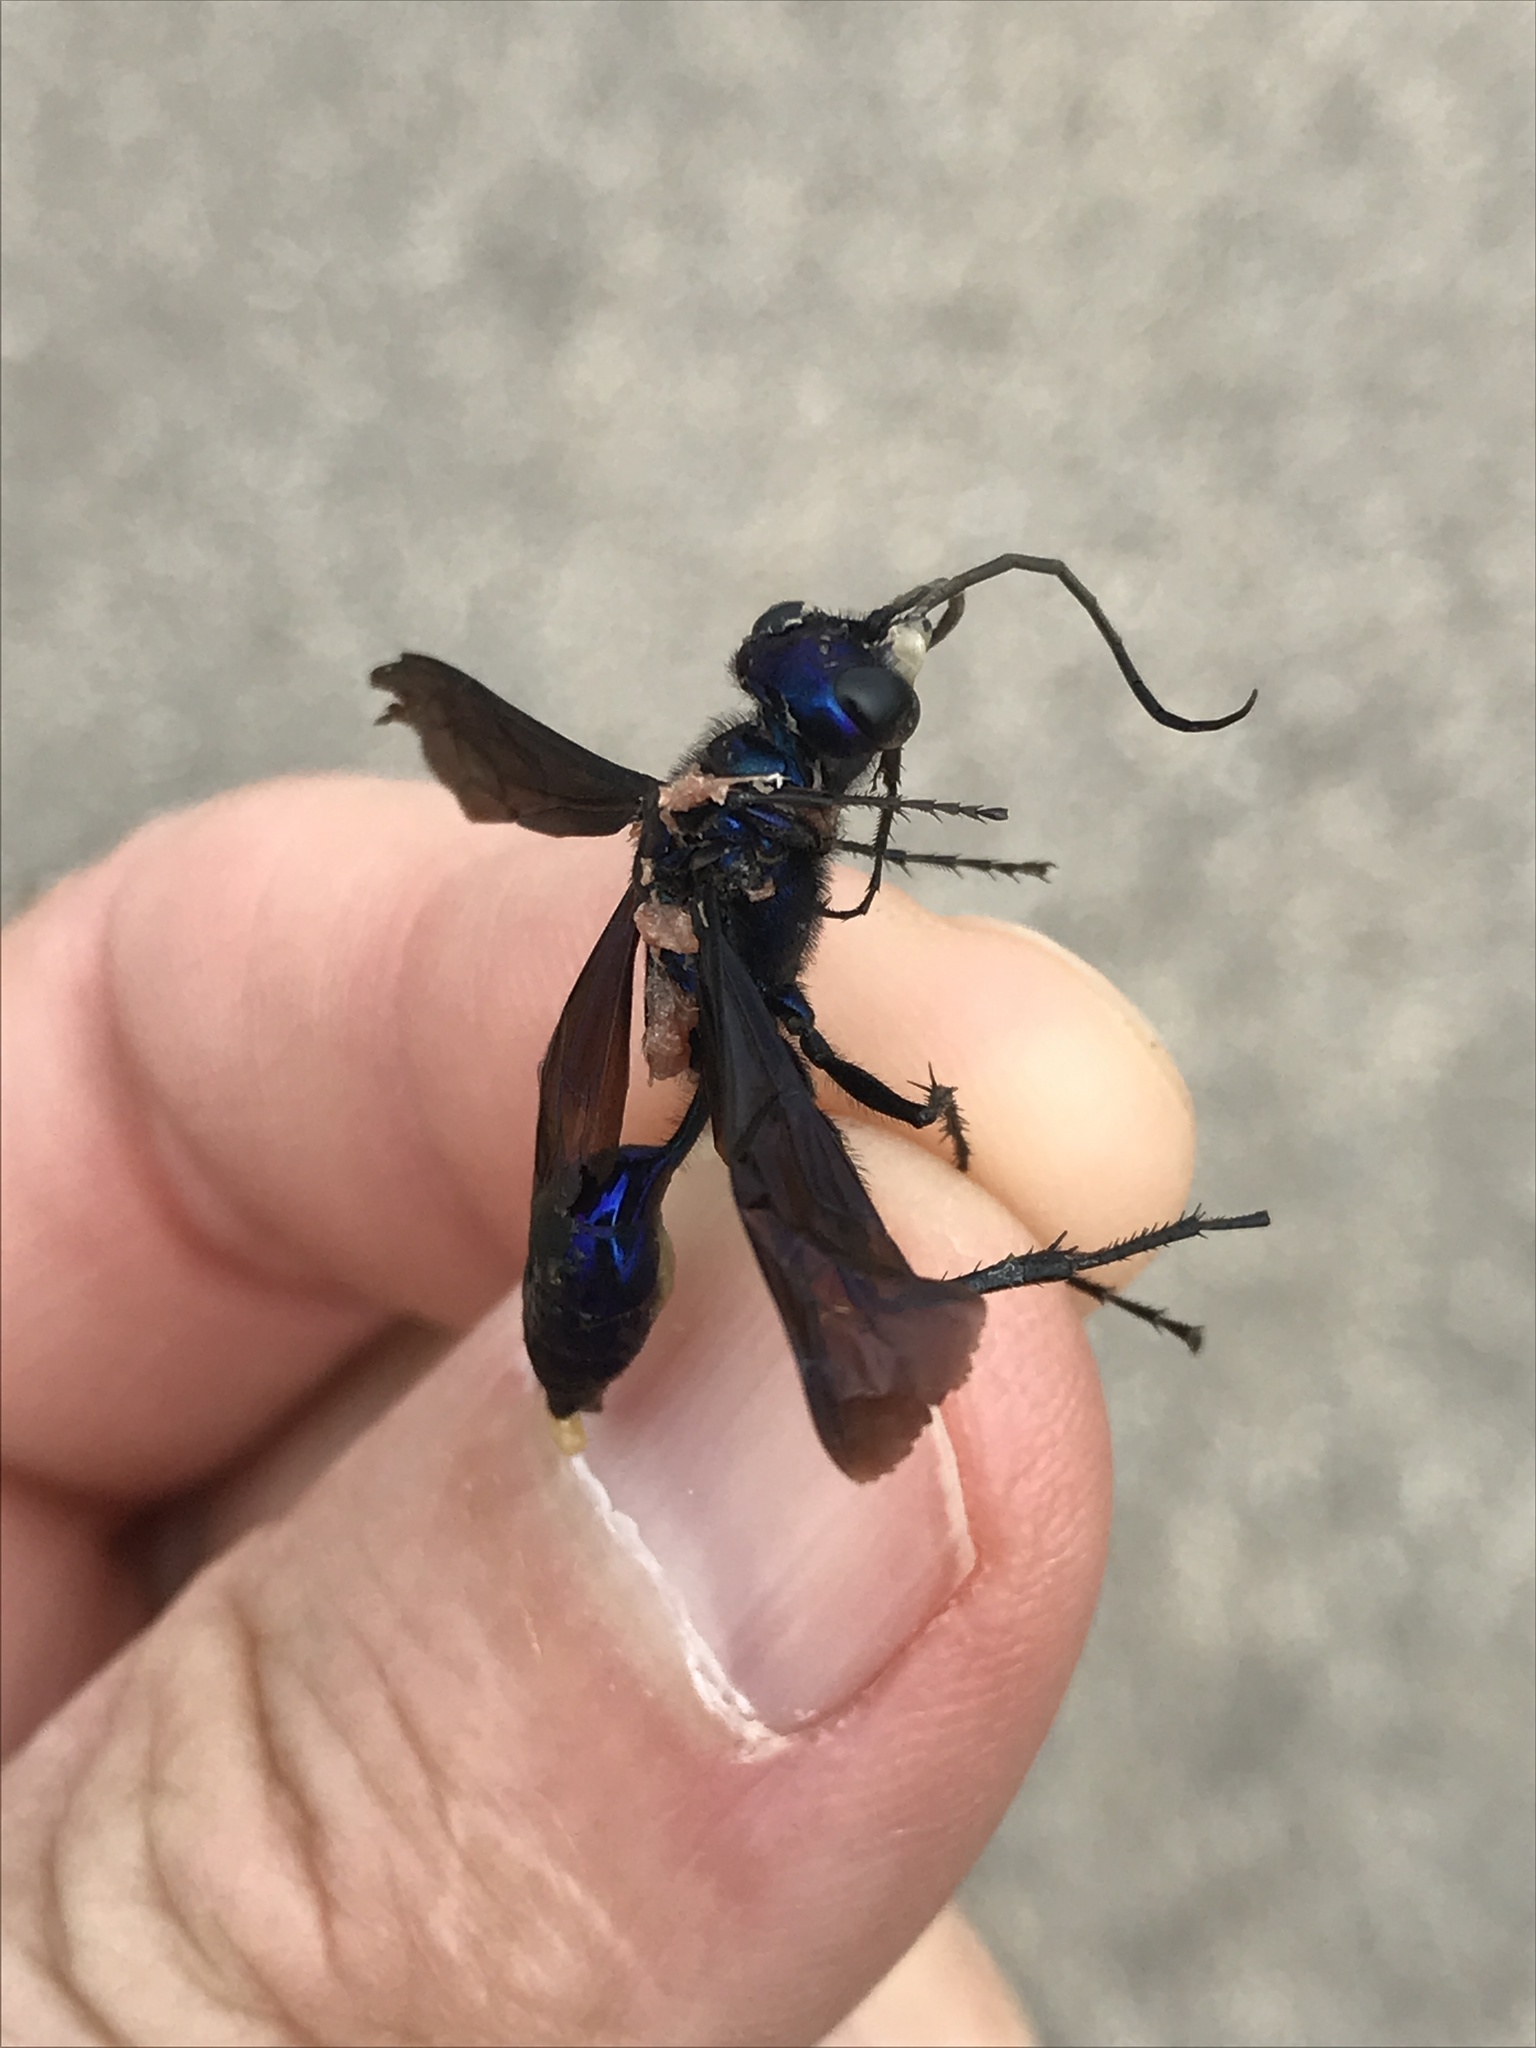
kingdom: Animalia
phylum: Arthropoda
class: Insecta
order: Hymenoptera
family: Sphecidae
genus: Chlorion
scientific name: Chlorion aerarium
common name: Steel-blue cricket hunter
